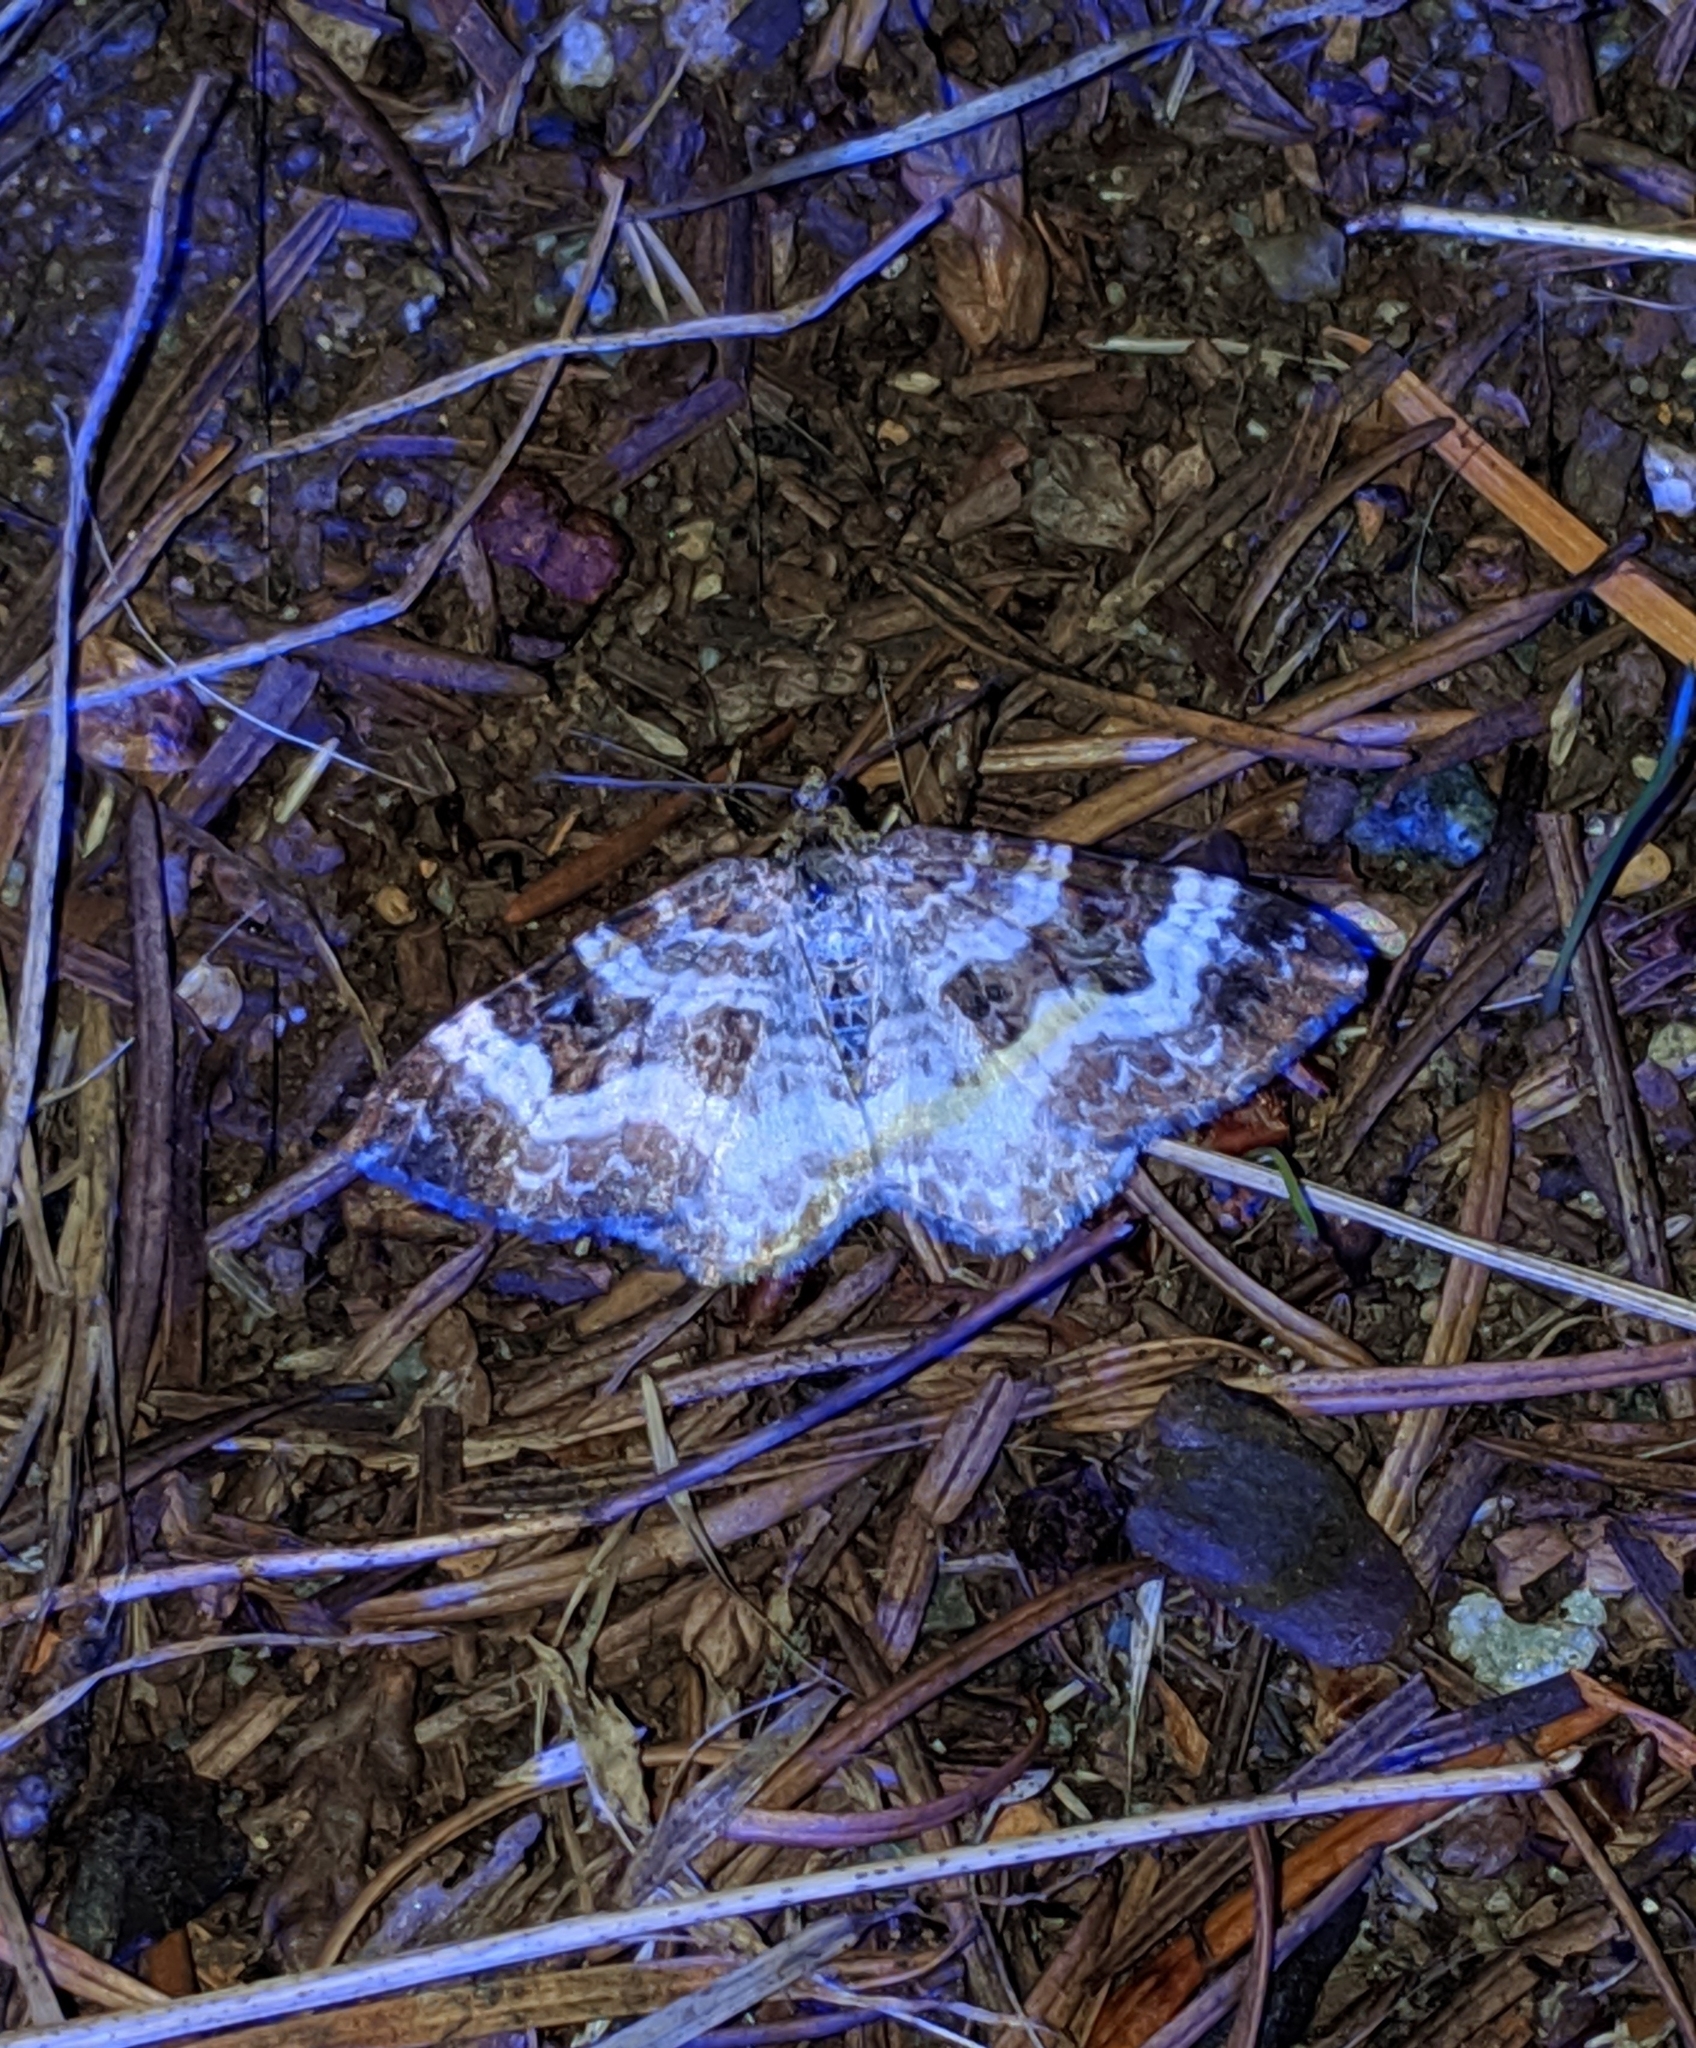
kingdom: Animalia
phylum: Arthropoda
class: Insecta
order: Lepidoptera
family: Geometridae
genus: Epirrhoe
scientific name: Epirrhoe alternata
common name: Common carpet
